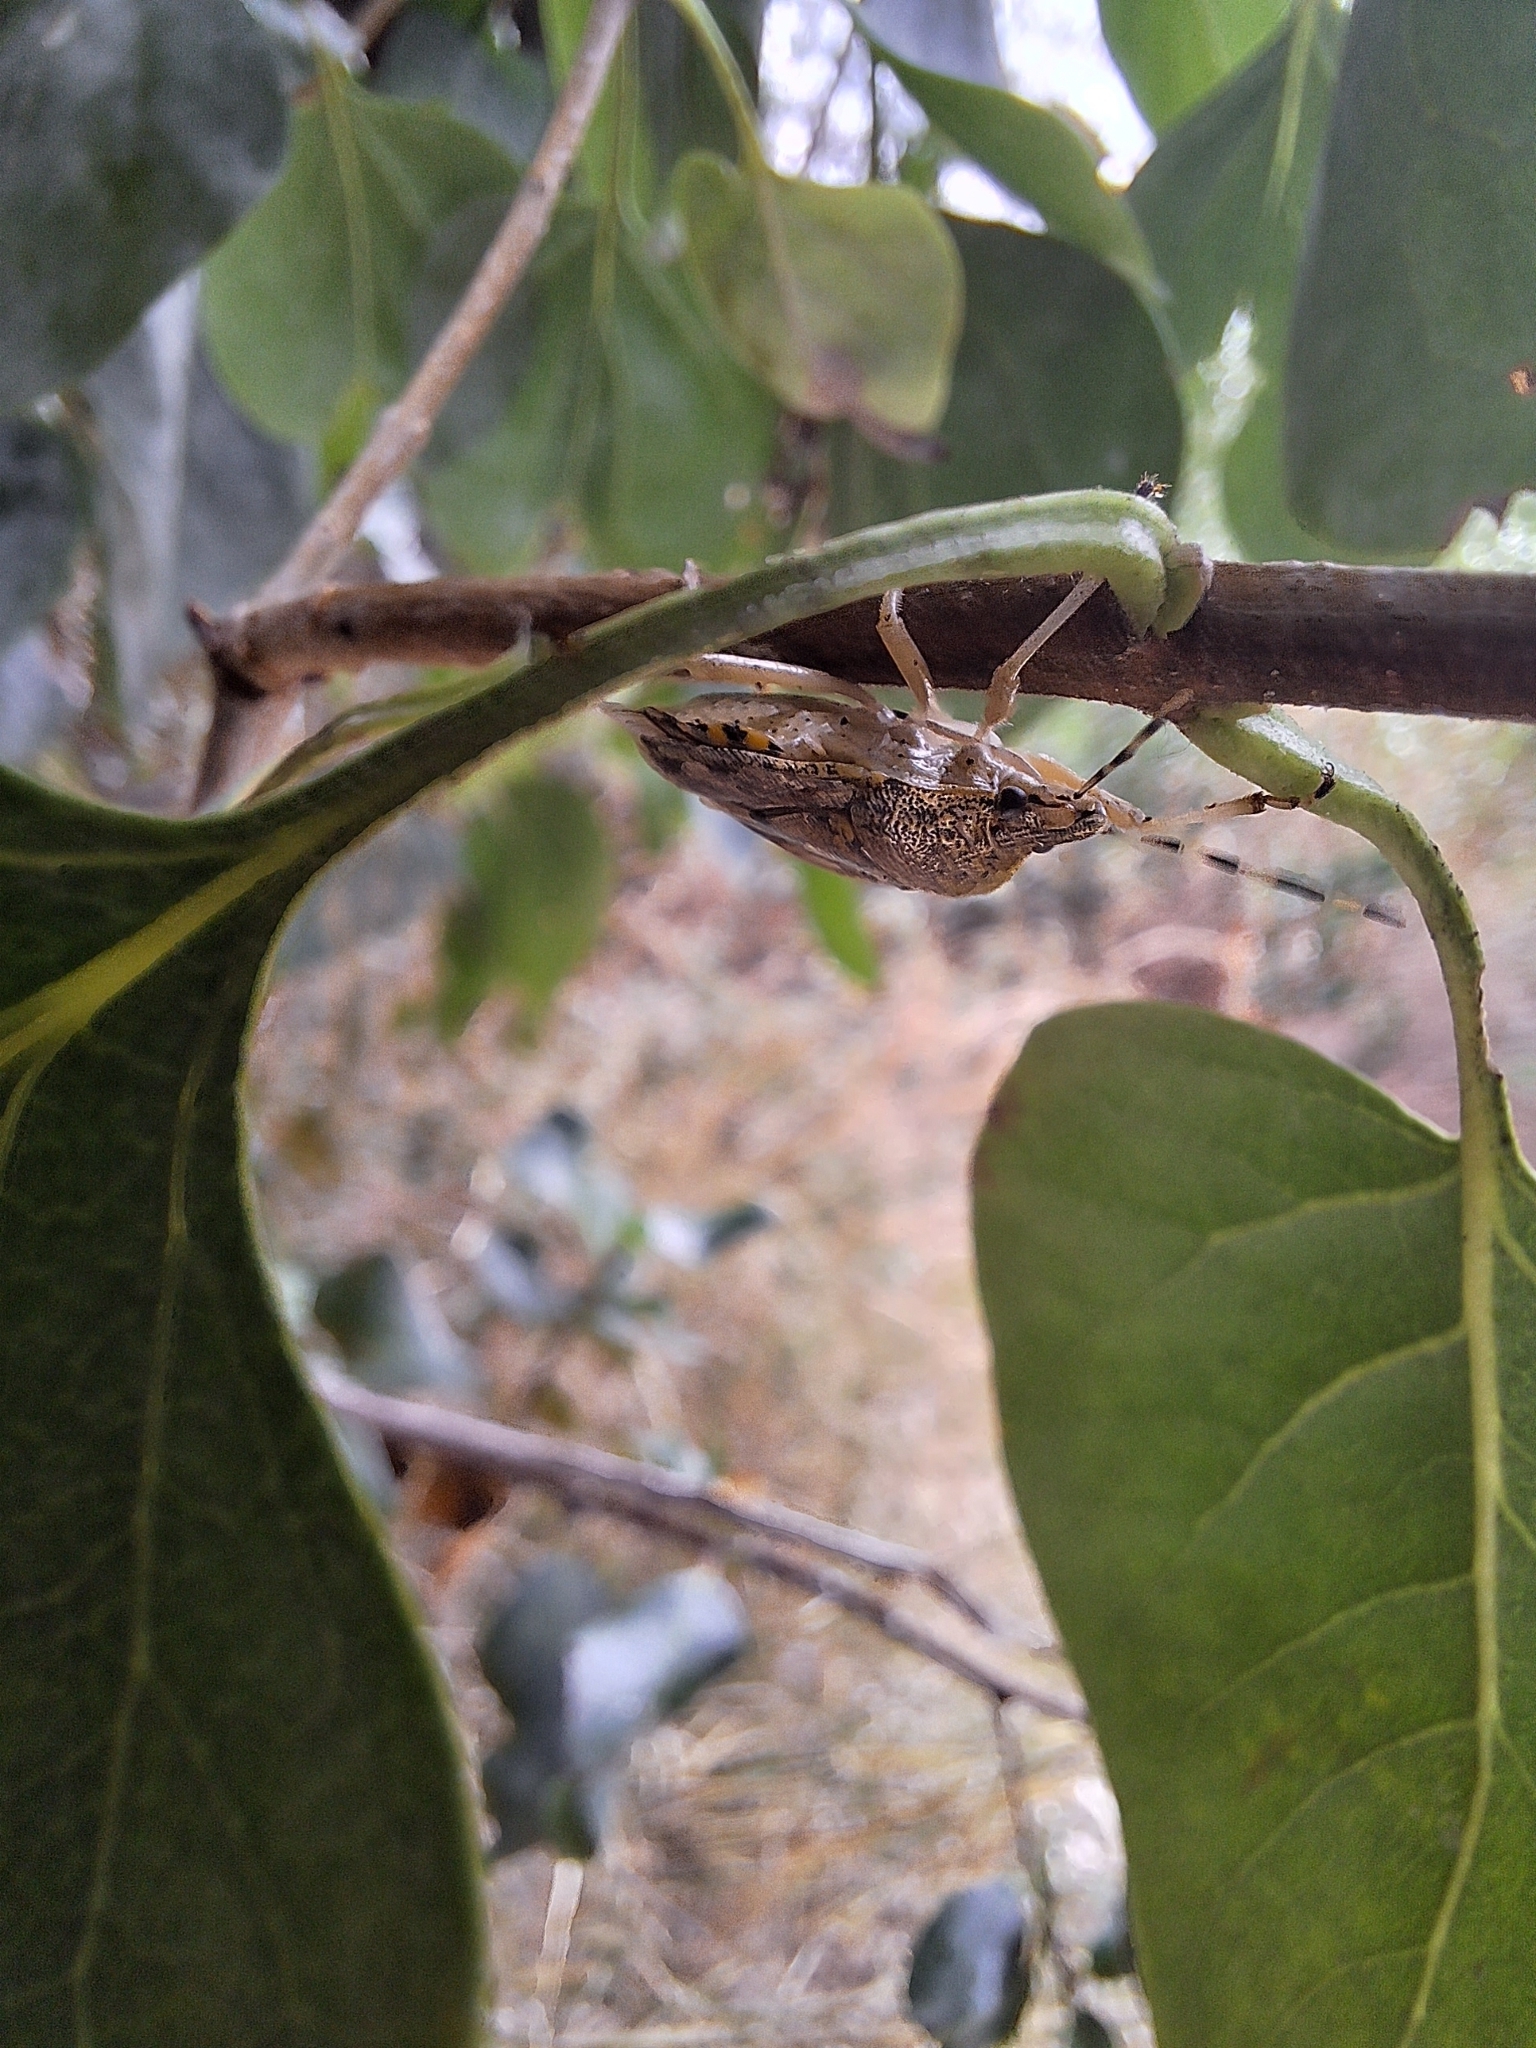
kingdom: Animalia
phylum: Arthropoda
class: Insecta
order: Hemiptera
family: Pentatomidae
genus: Rhaphigaster
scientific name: Rhaphigaster nebulosa
